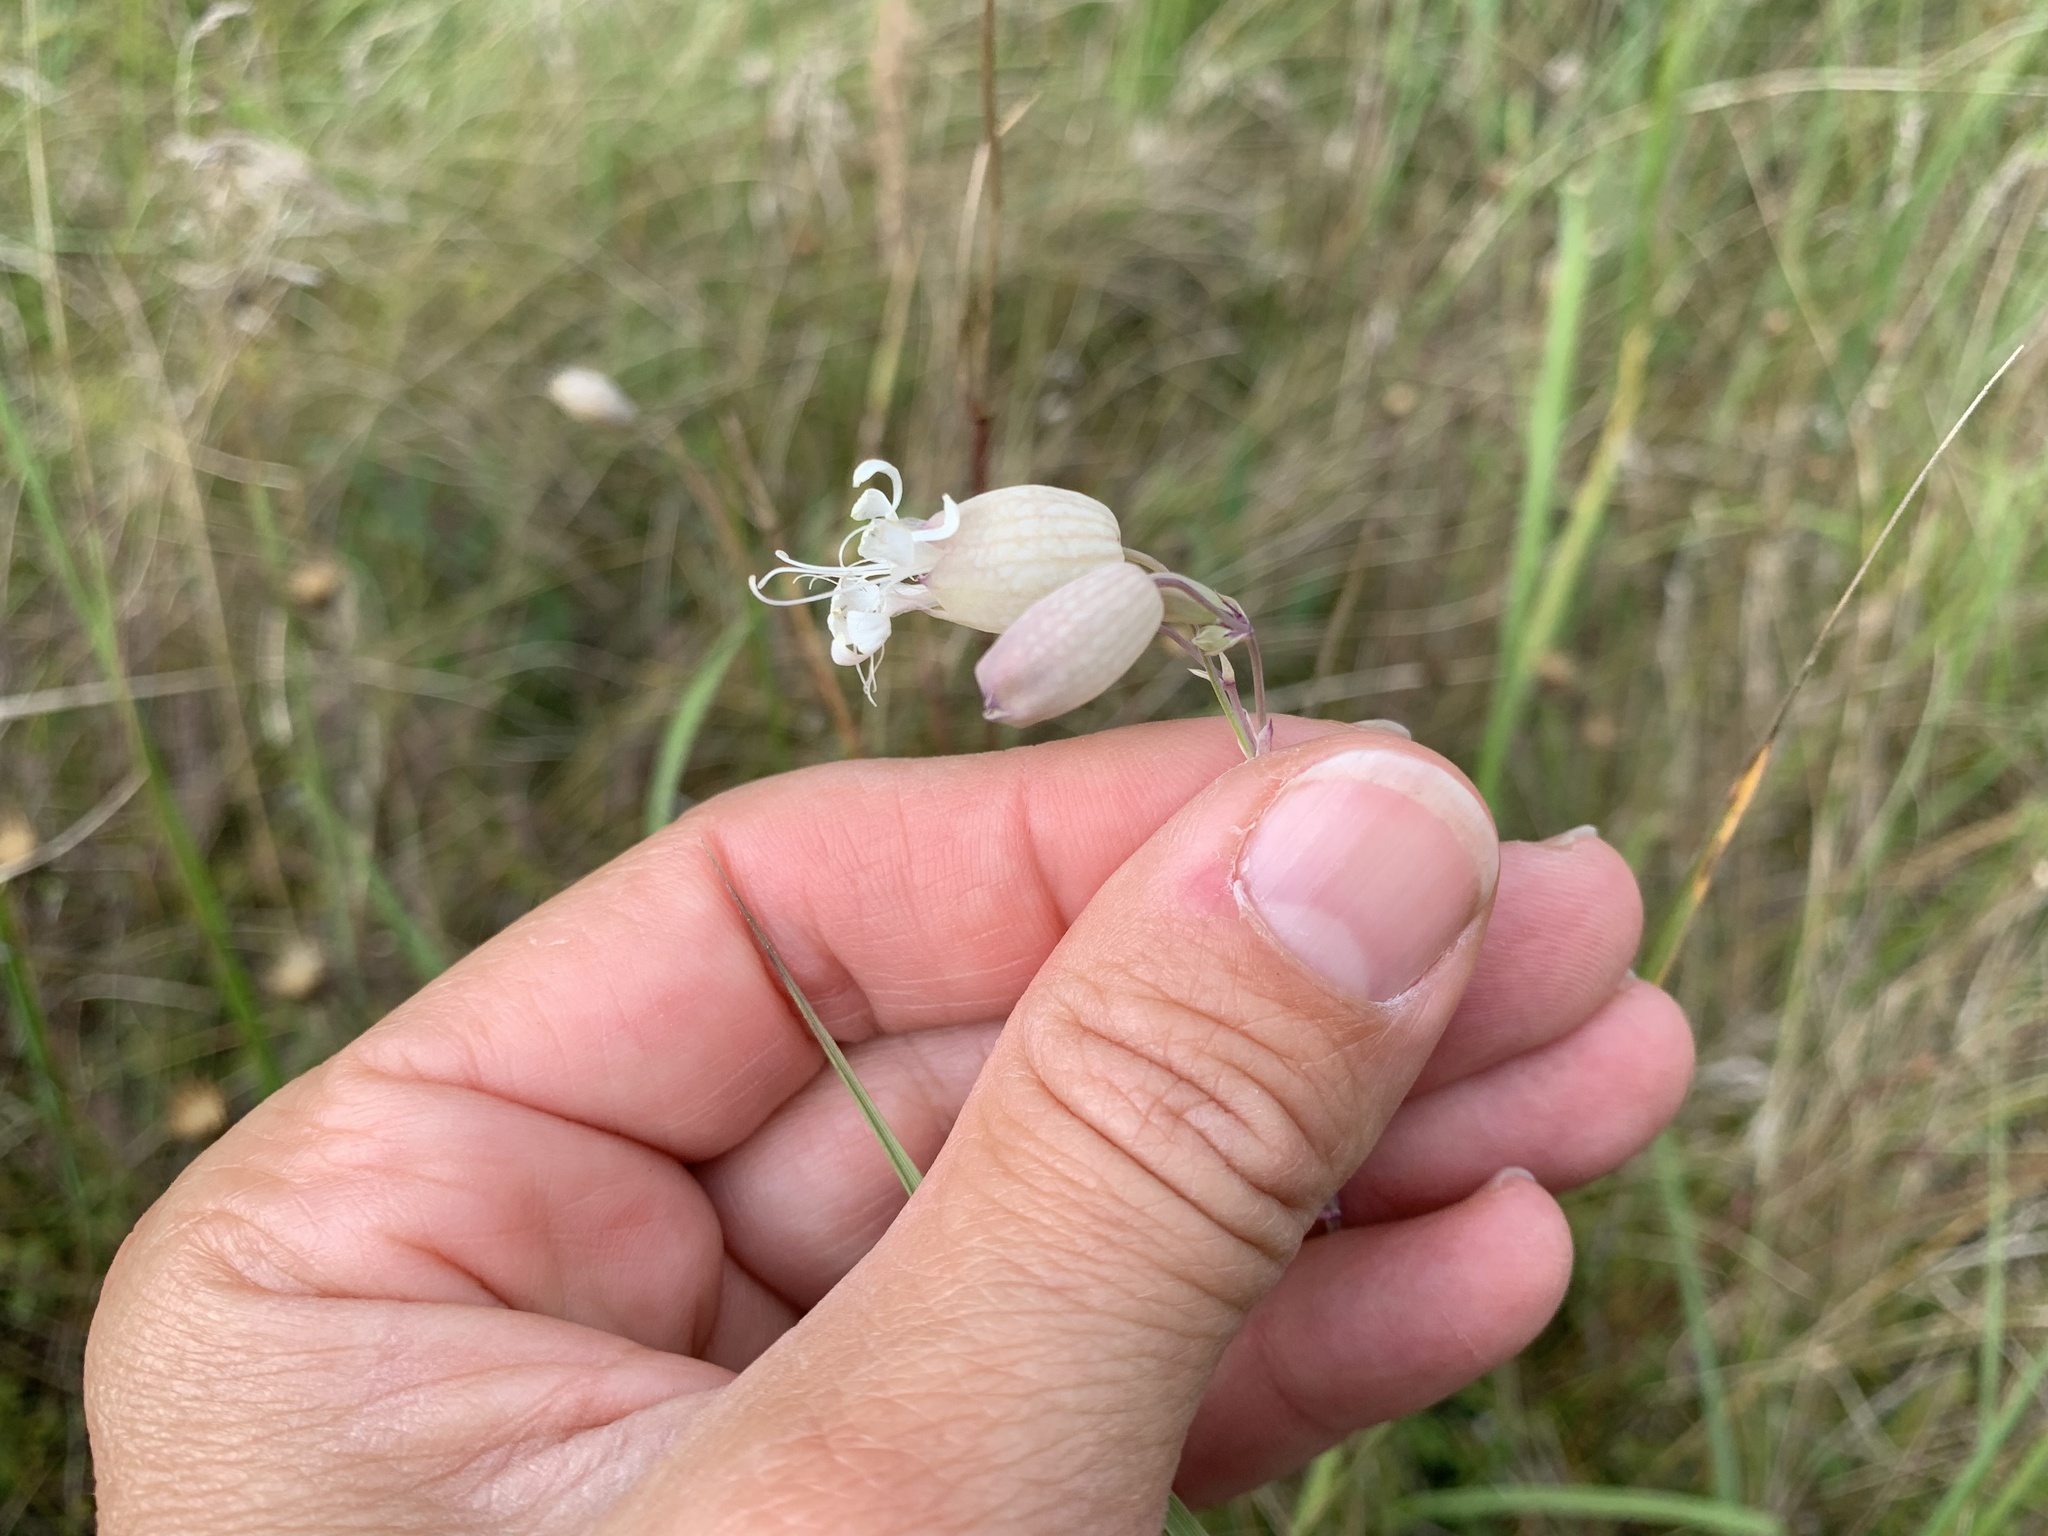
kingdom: Plantae
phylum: Tracheophyta
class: Magnoliopsida
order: Caryophyllales
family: Caryophyllaceae
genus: Silene
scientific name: Silene vulgaris
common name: Bladder campion
